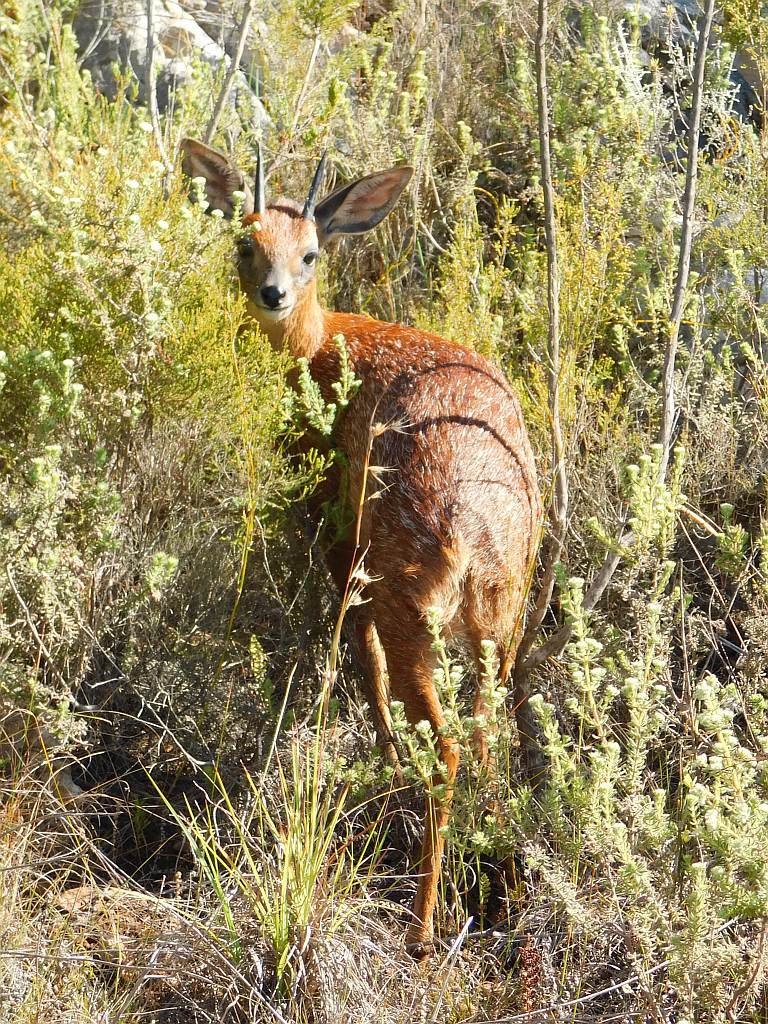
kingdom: Animalia
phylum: Chordata
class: Mammalia
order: Artiodactyla
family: Bovidae
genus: Raphicerus
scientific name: Raphicerus melanotis
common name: Cape grysbok
